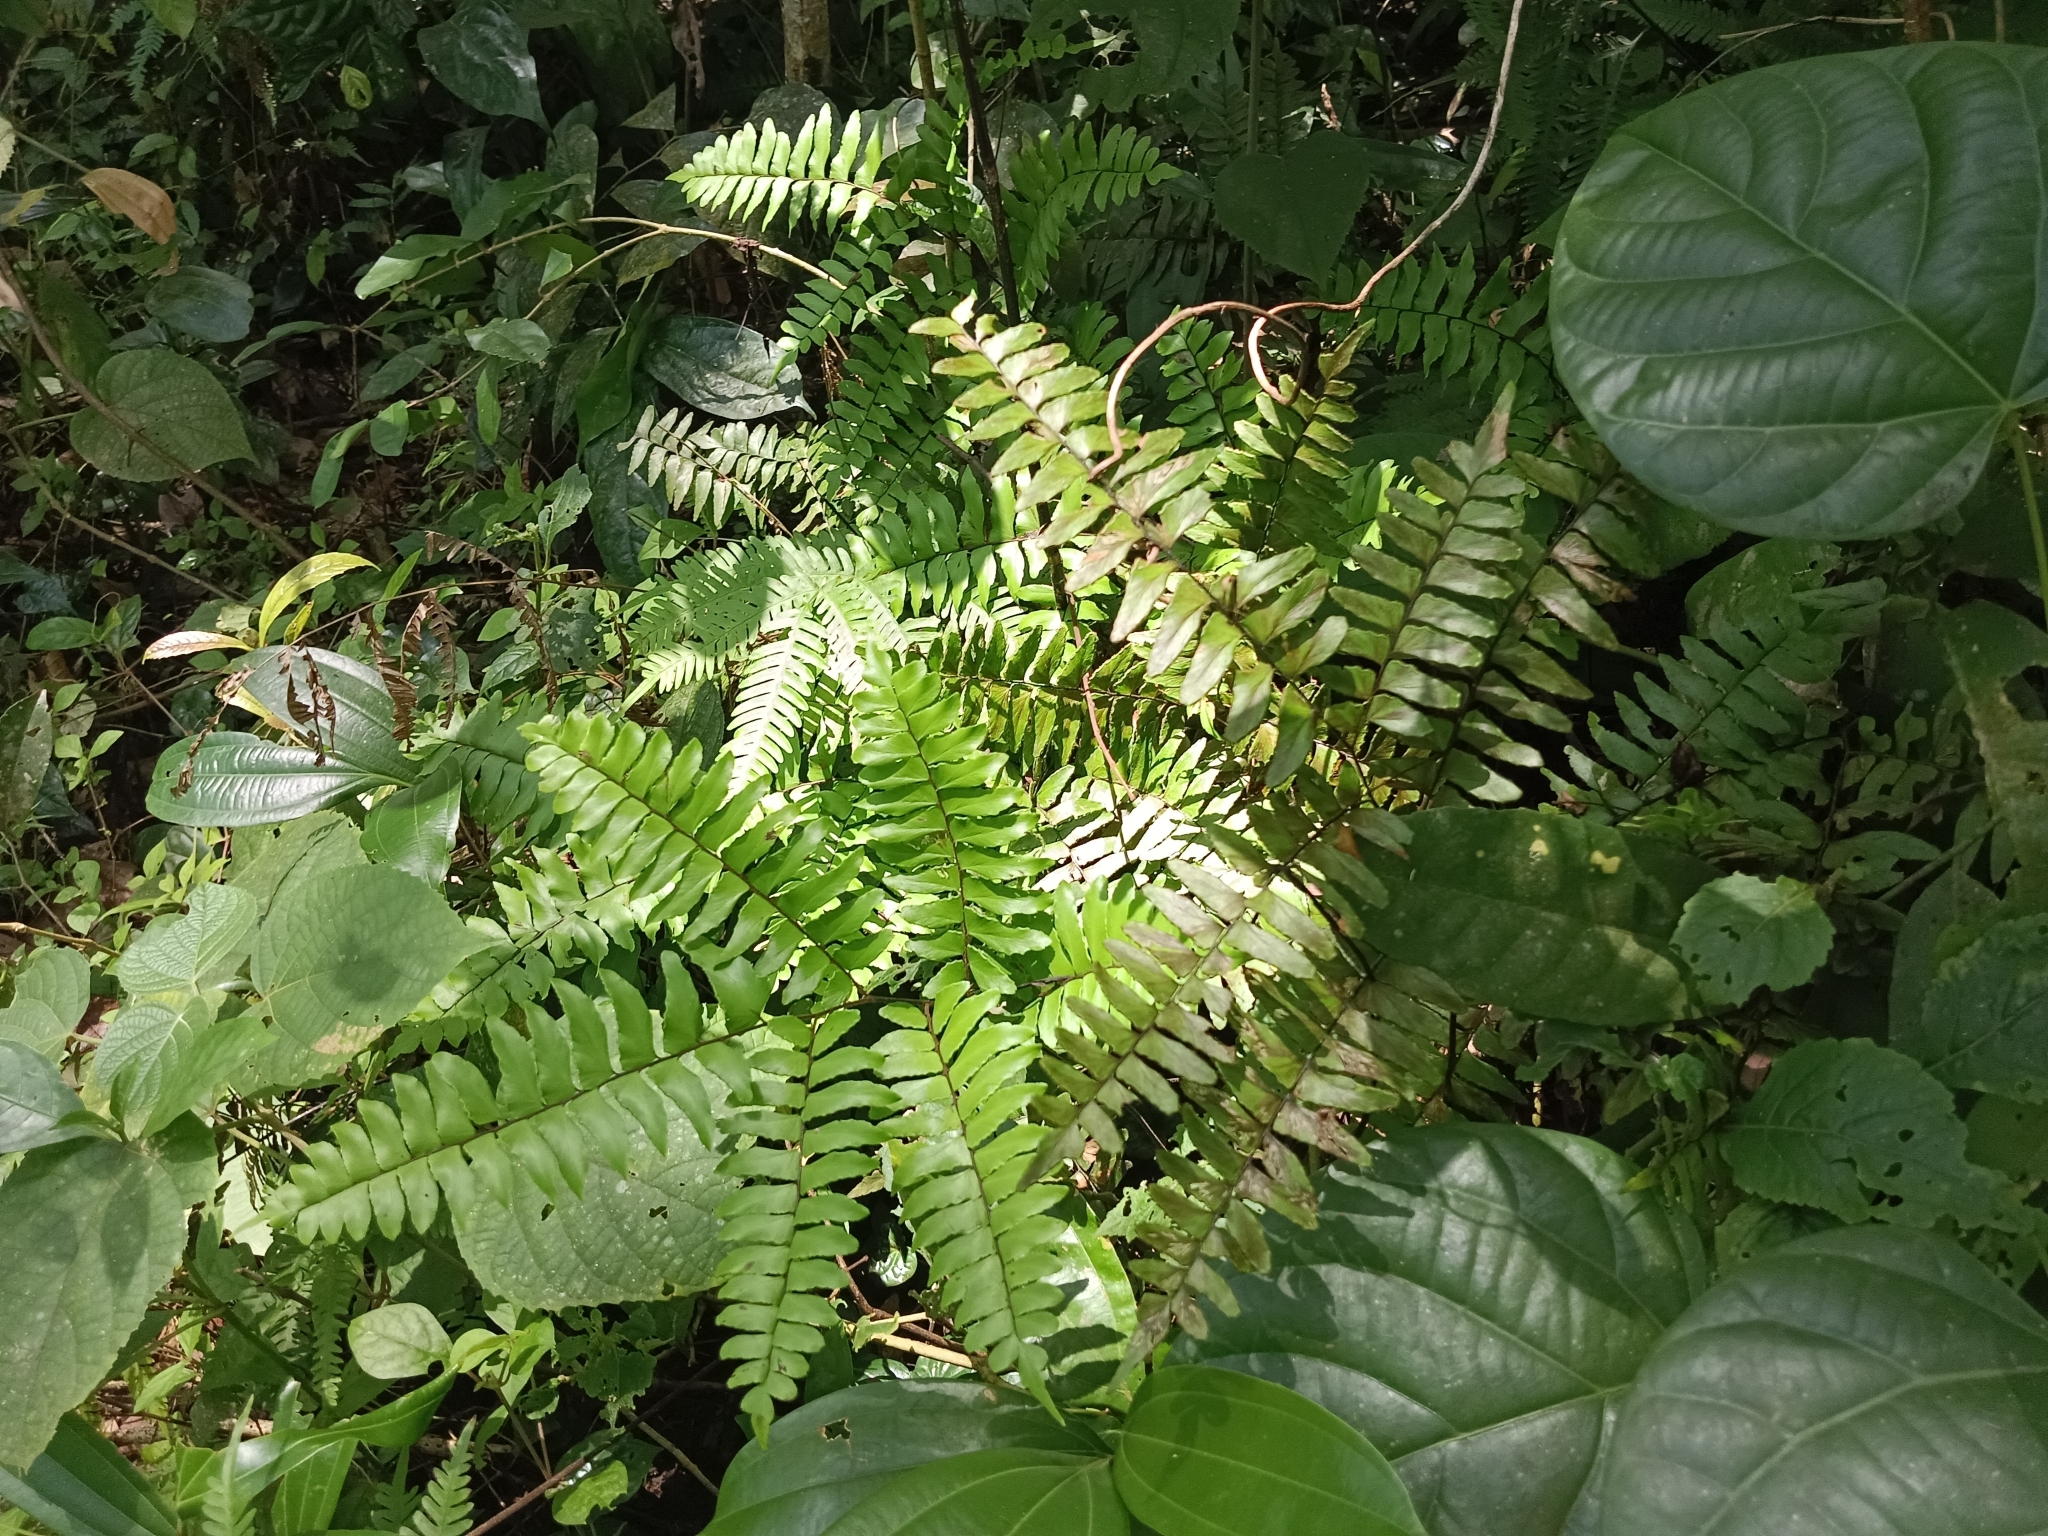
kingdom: Plantae
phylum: Tracheophyta
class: Polypodiopsida
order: Polypodiales
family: Pteridaceae
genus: Adiantum
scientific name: Adiantum latifolium
